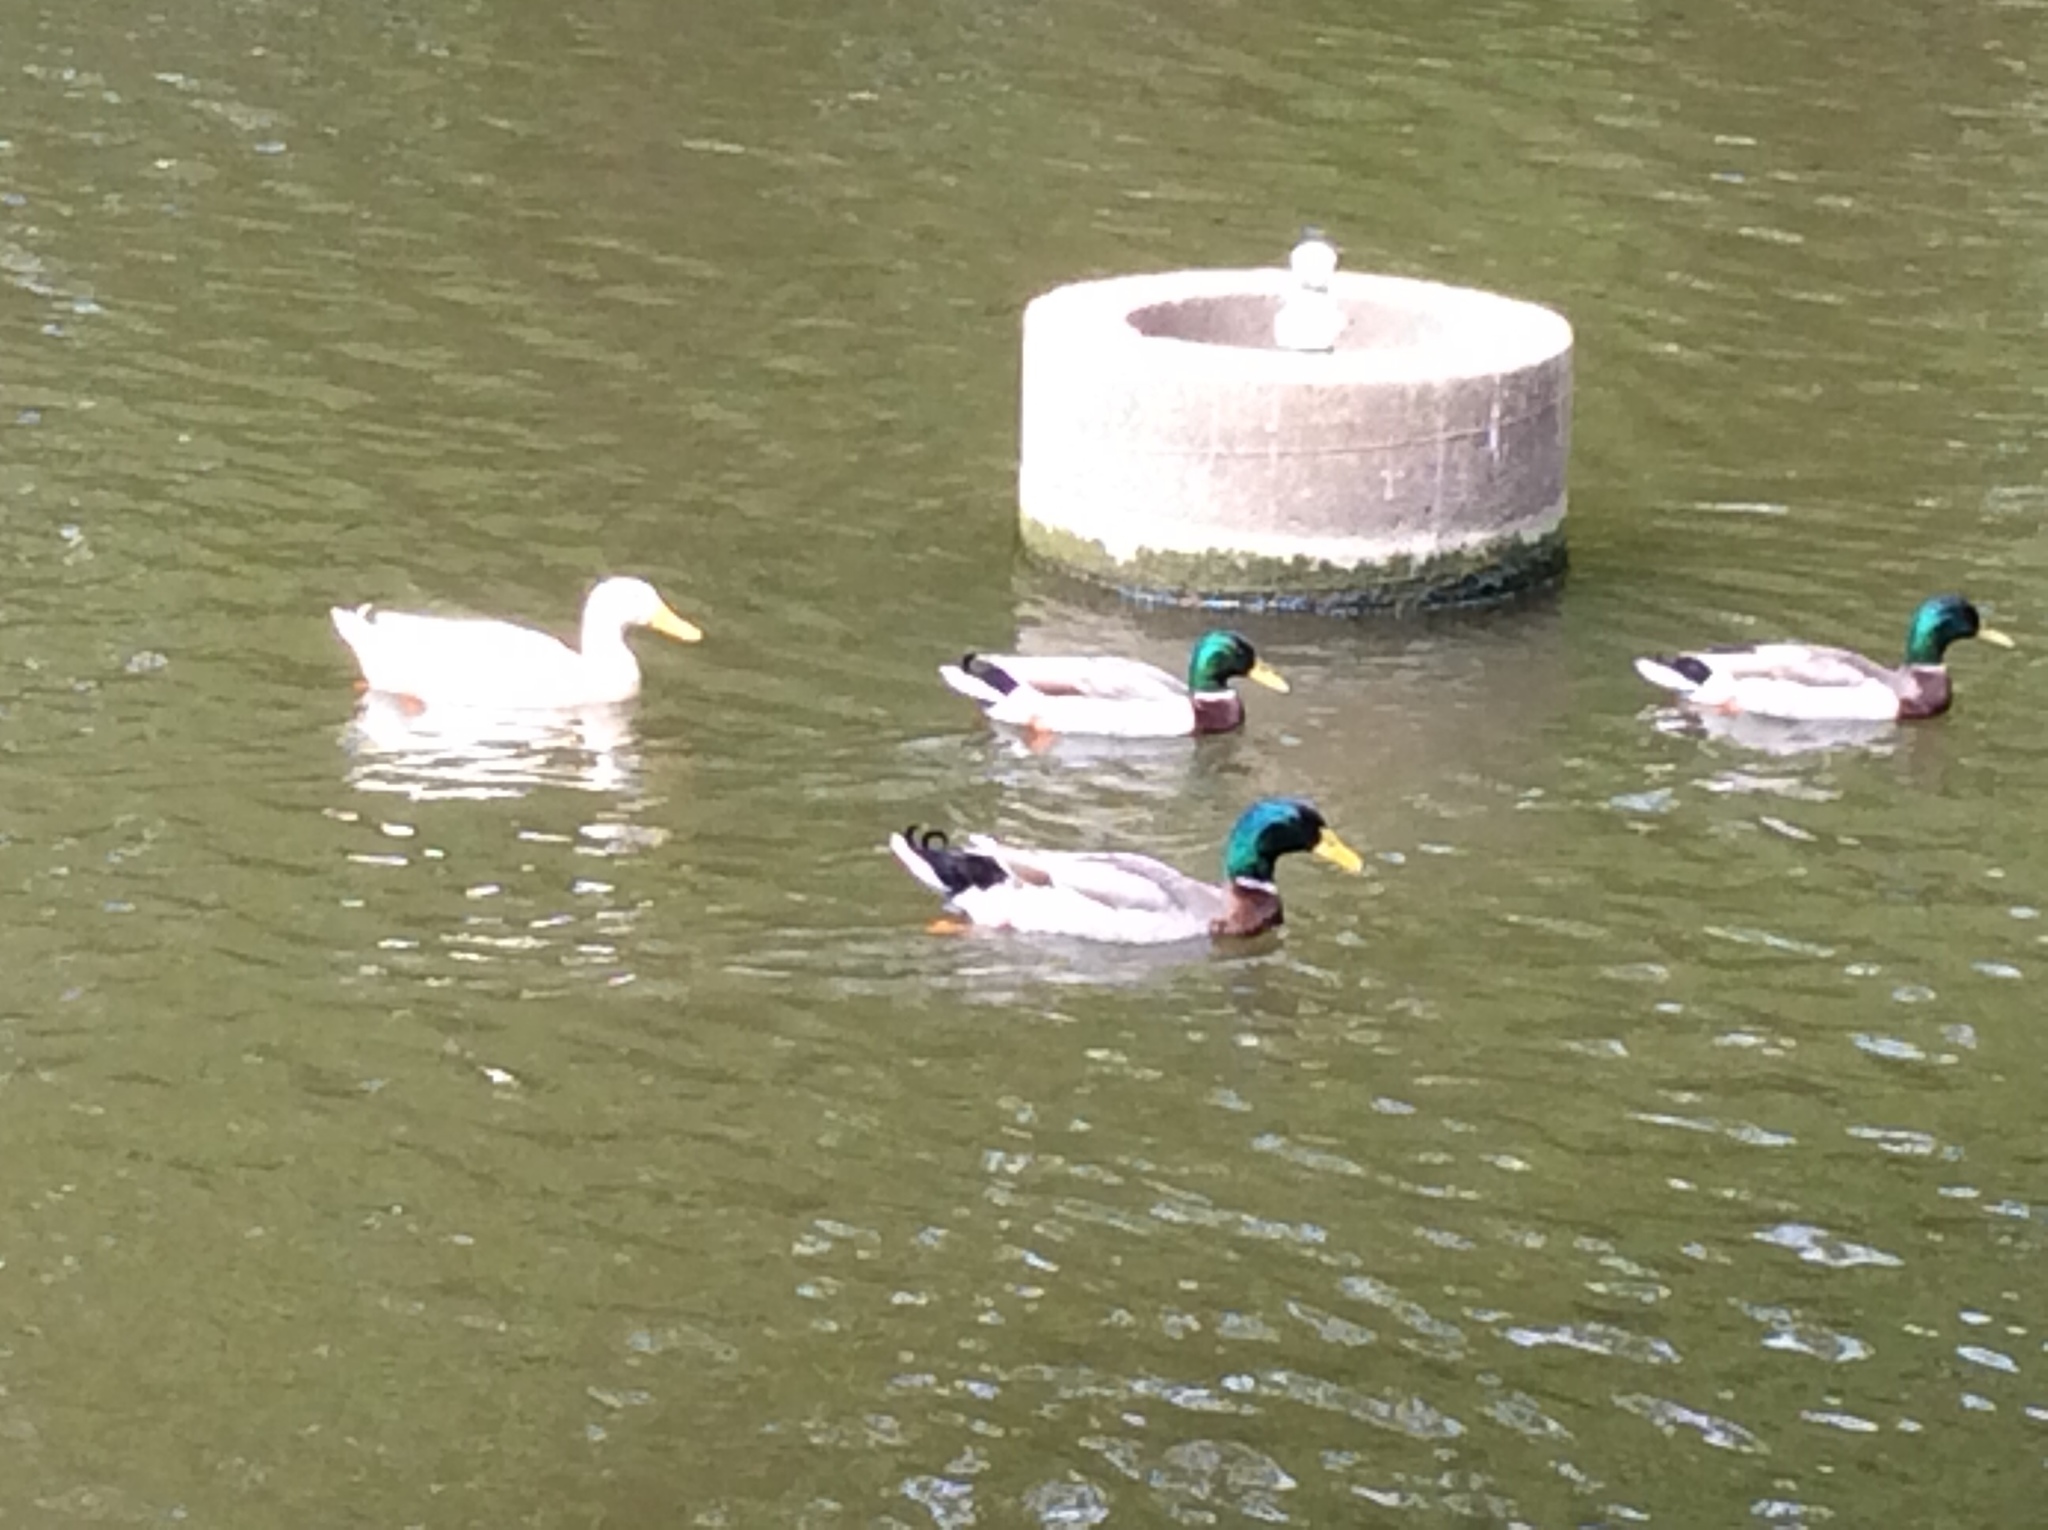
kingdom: Animalia
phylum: Chordata
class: Aves
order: Anseriformes
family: Anatidae
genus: Anas
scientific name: Anas platyrhynchos
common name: Mallard
